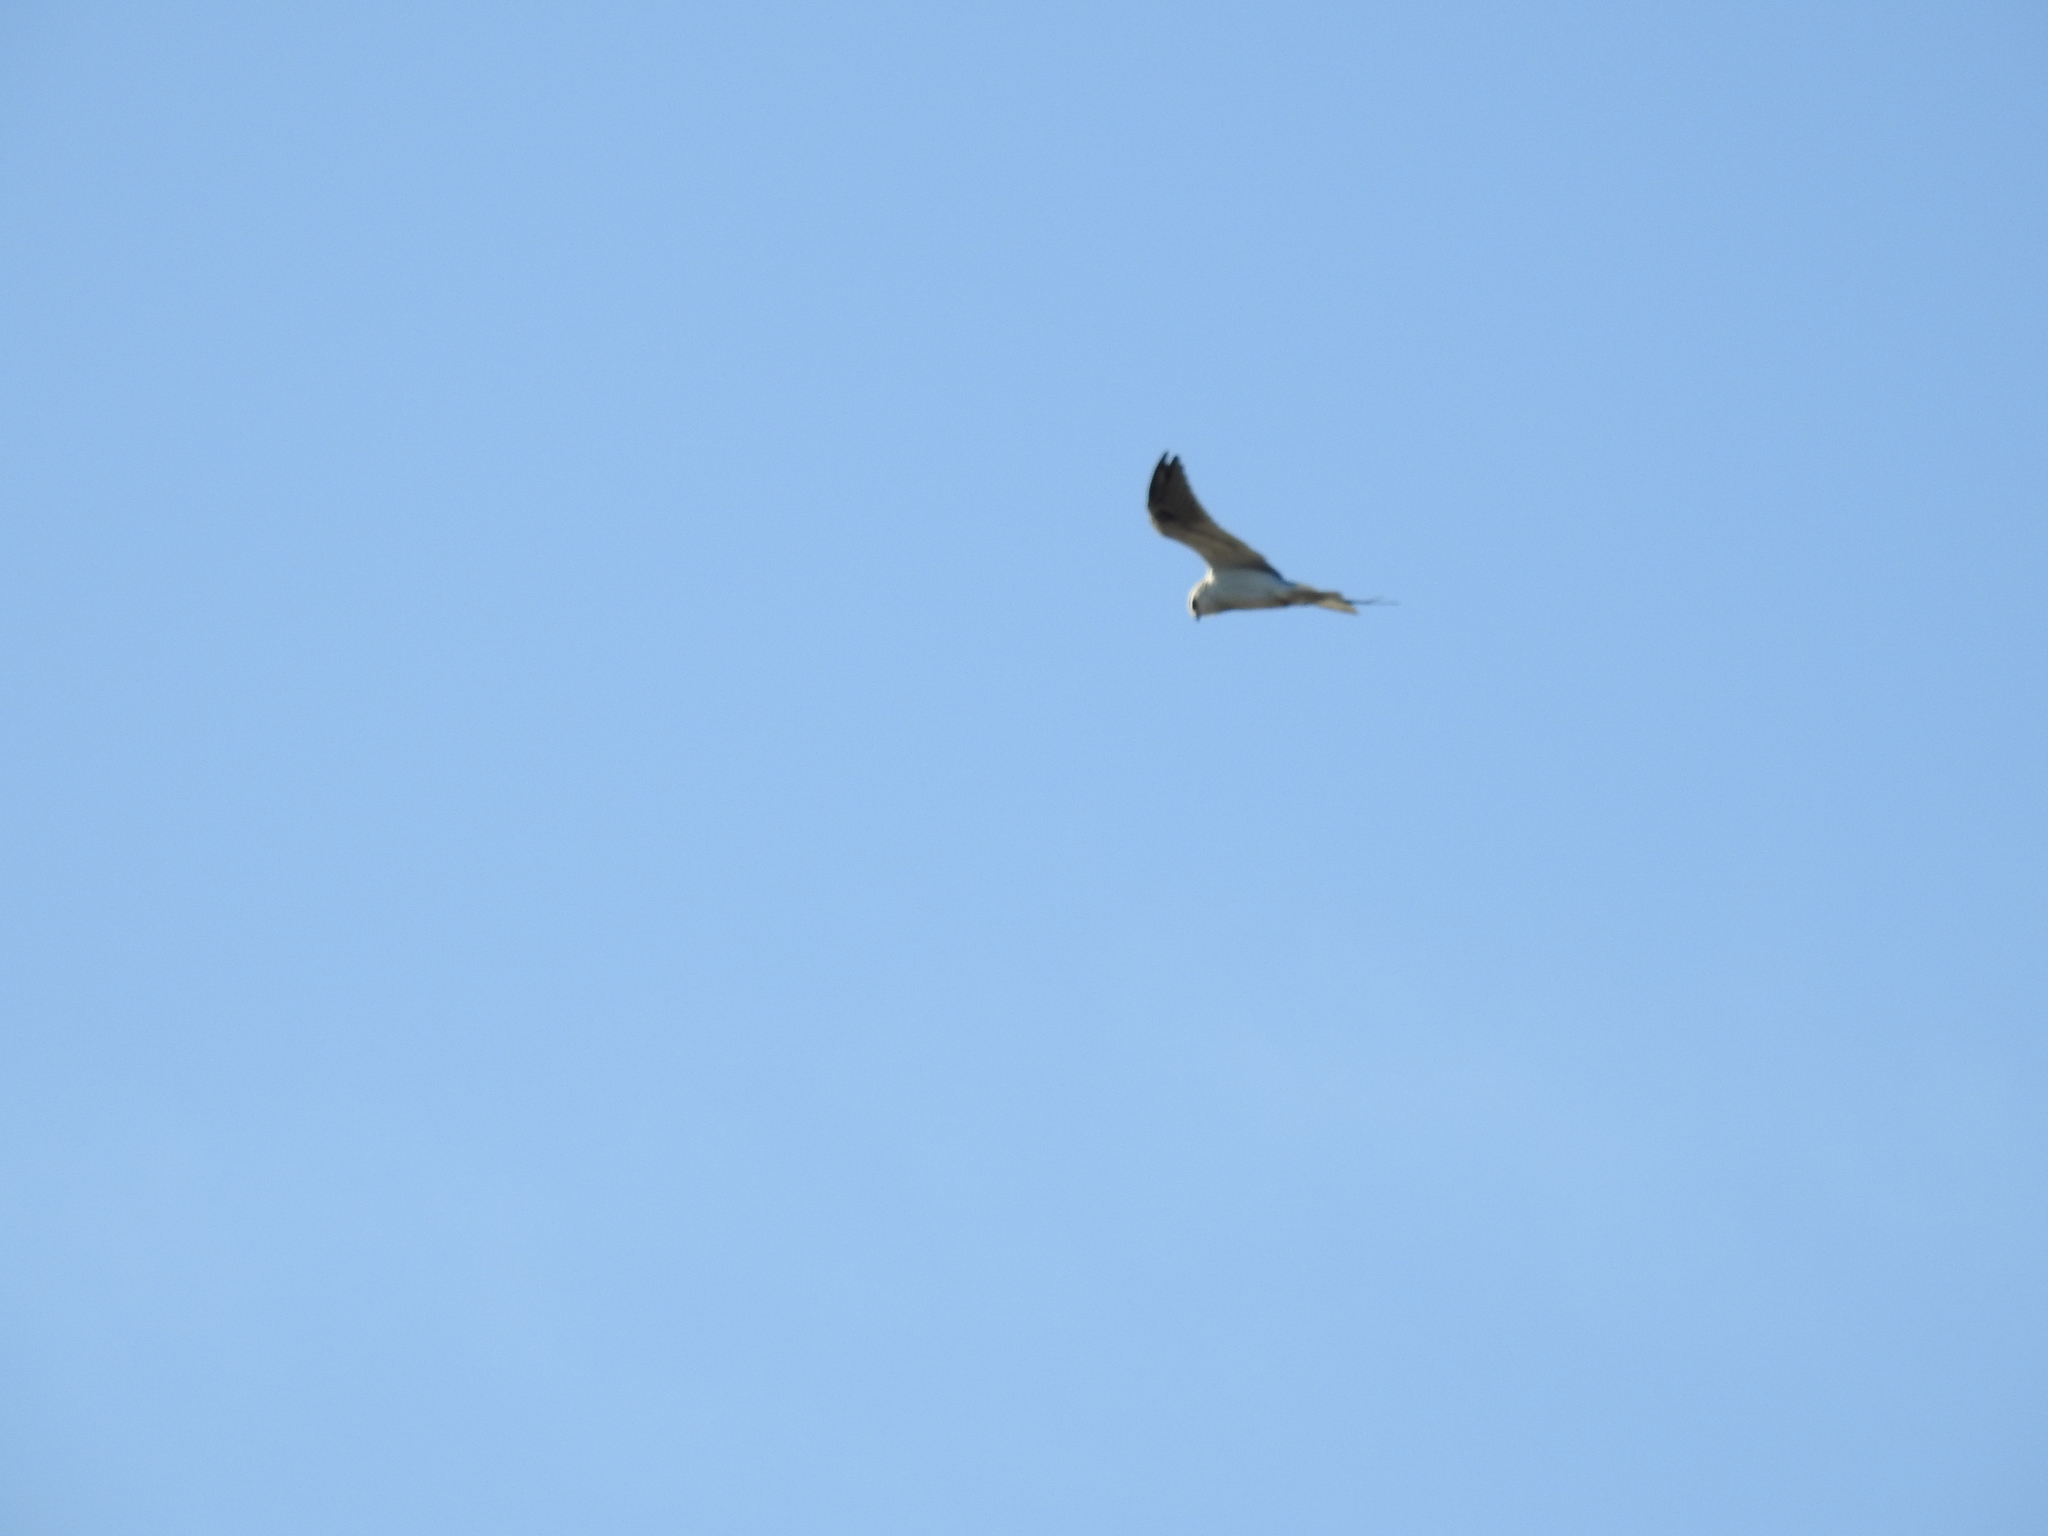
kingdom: Animalia
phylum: Chordata
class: Aves
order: Accipitriformes
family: Accipitridae
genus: Elanus
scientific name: Elanus leucurus
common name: White-tailed kite
